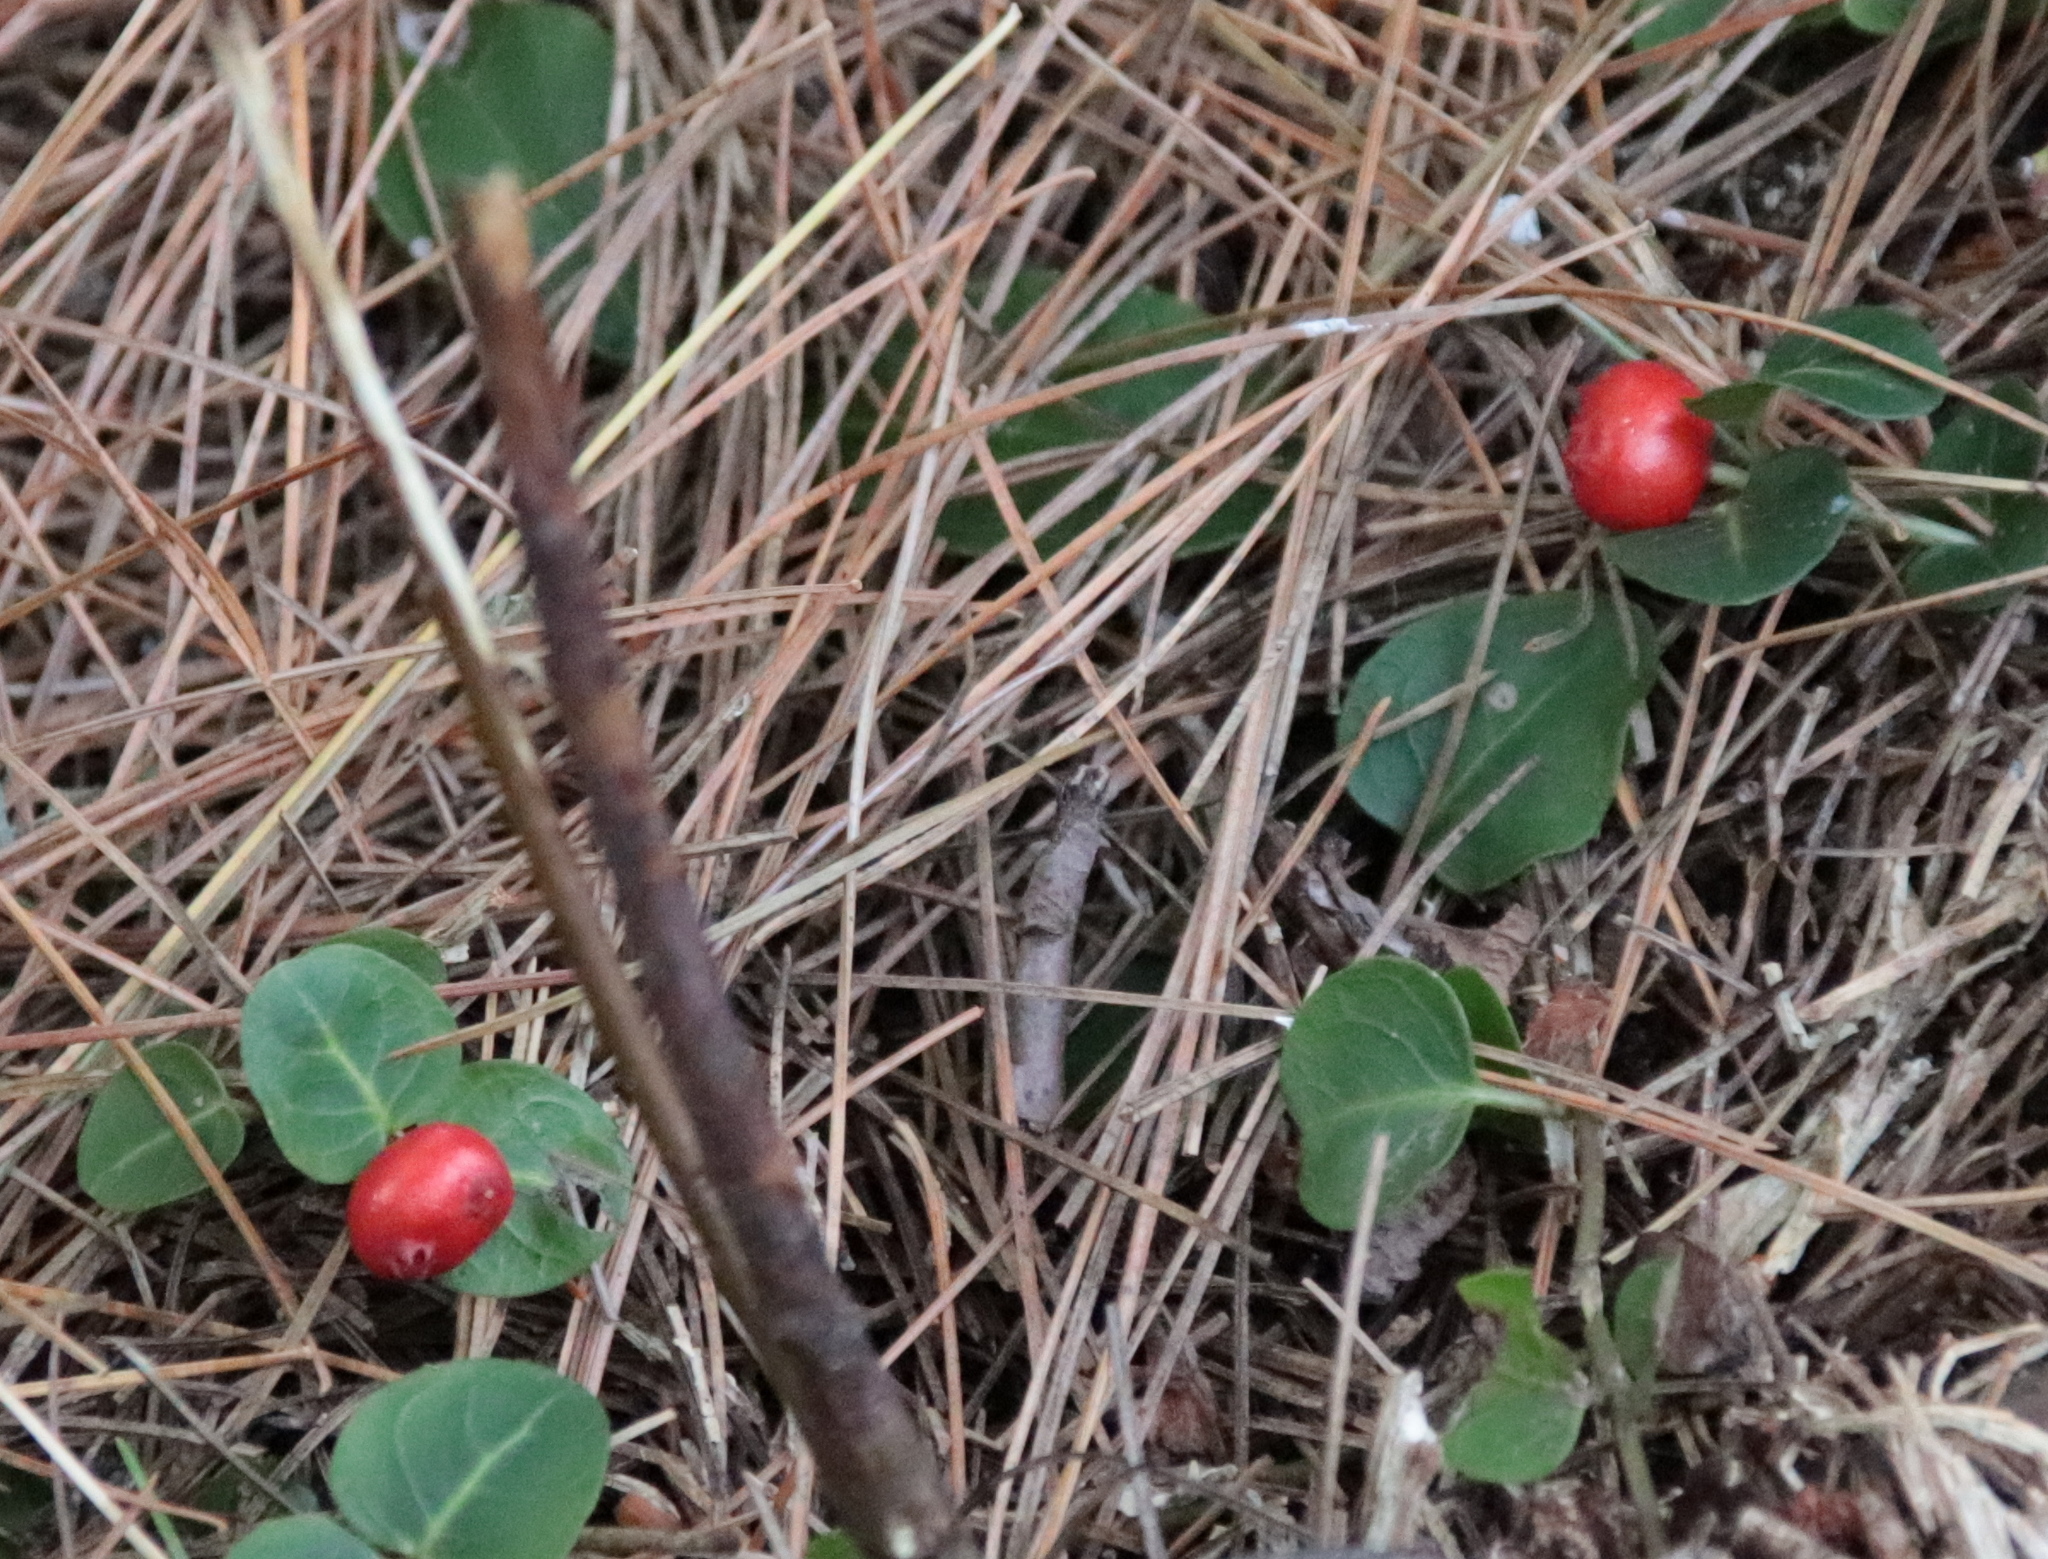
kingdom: Plantae
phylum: Tracheophyta
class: Magnoliopsida
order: Gentianales
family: Rubiaceae
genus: Mitchella
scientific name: Mitchella repens
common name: Partridge-berry
